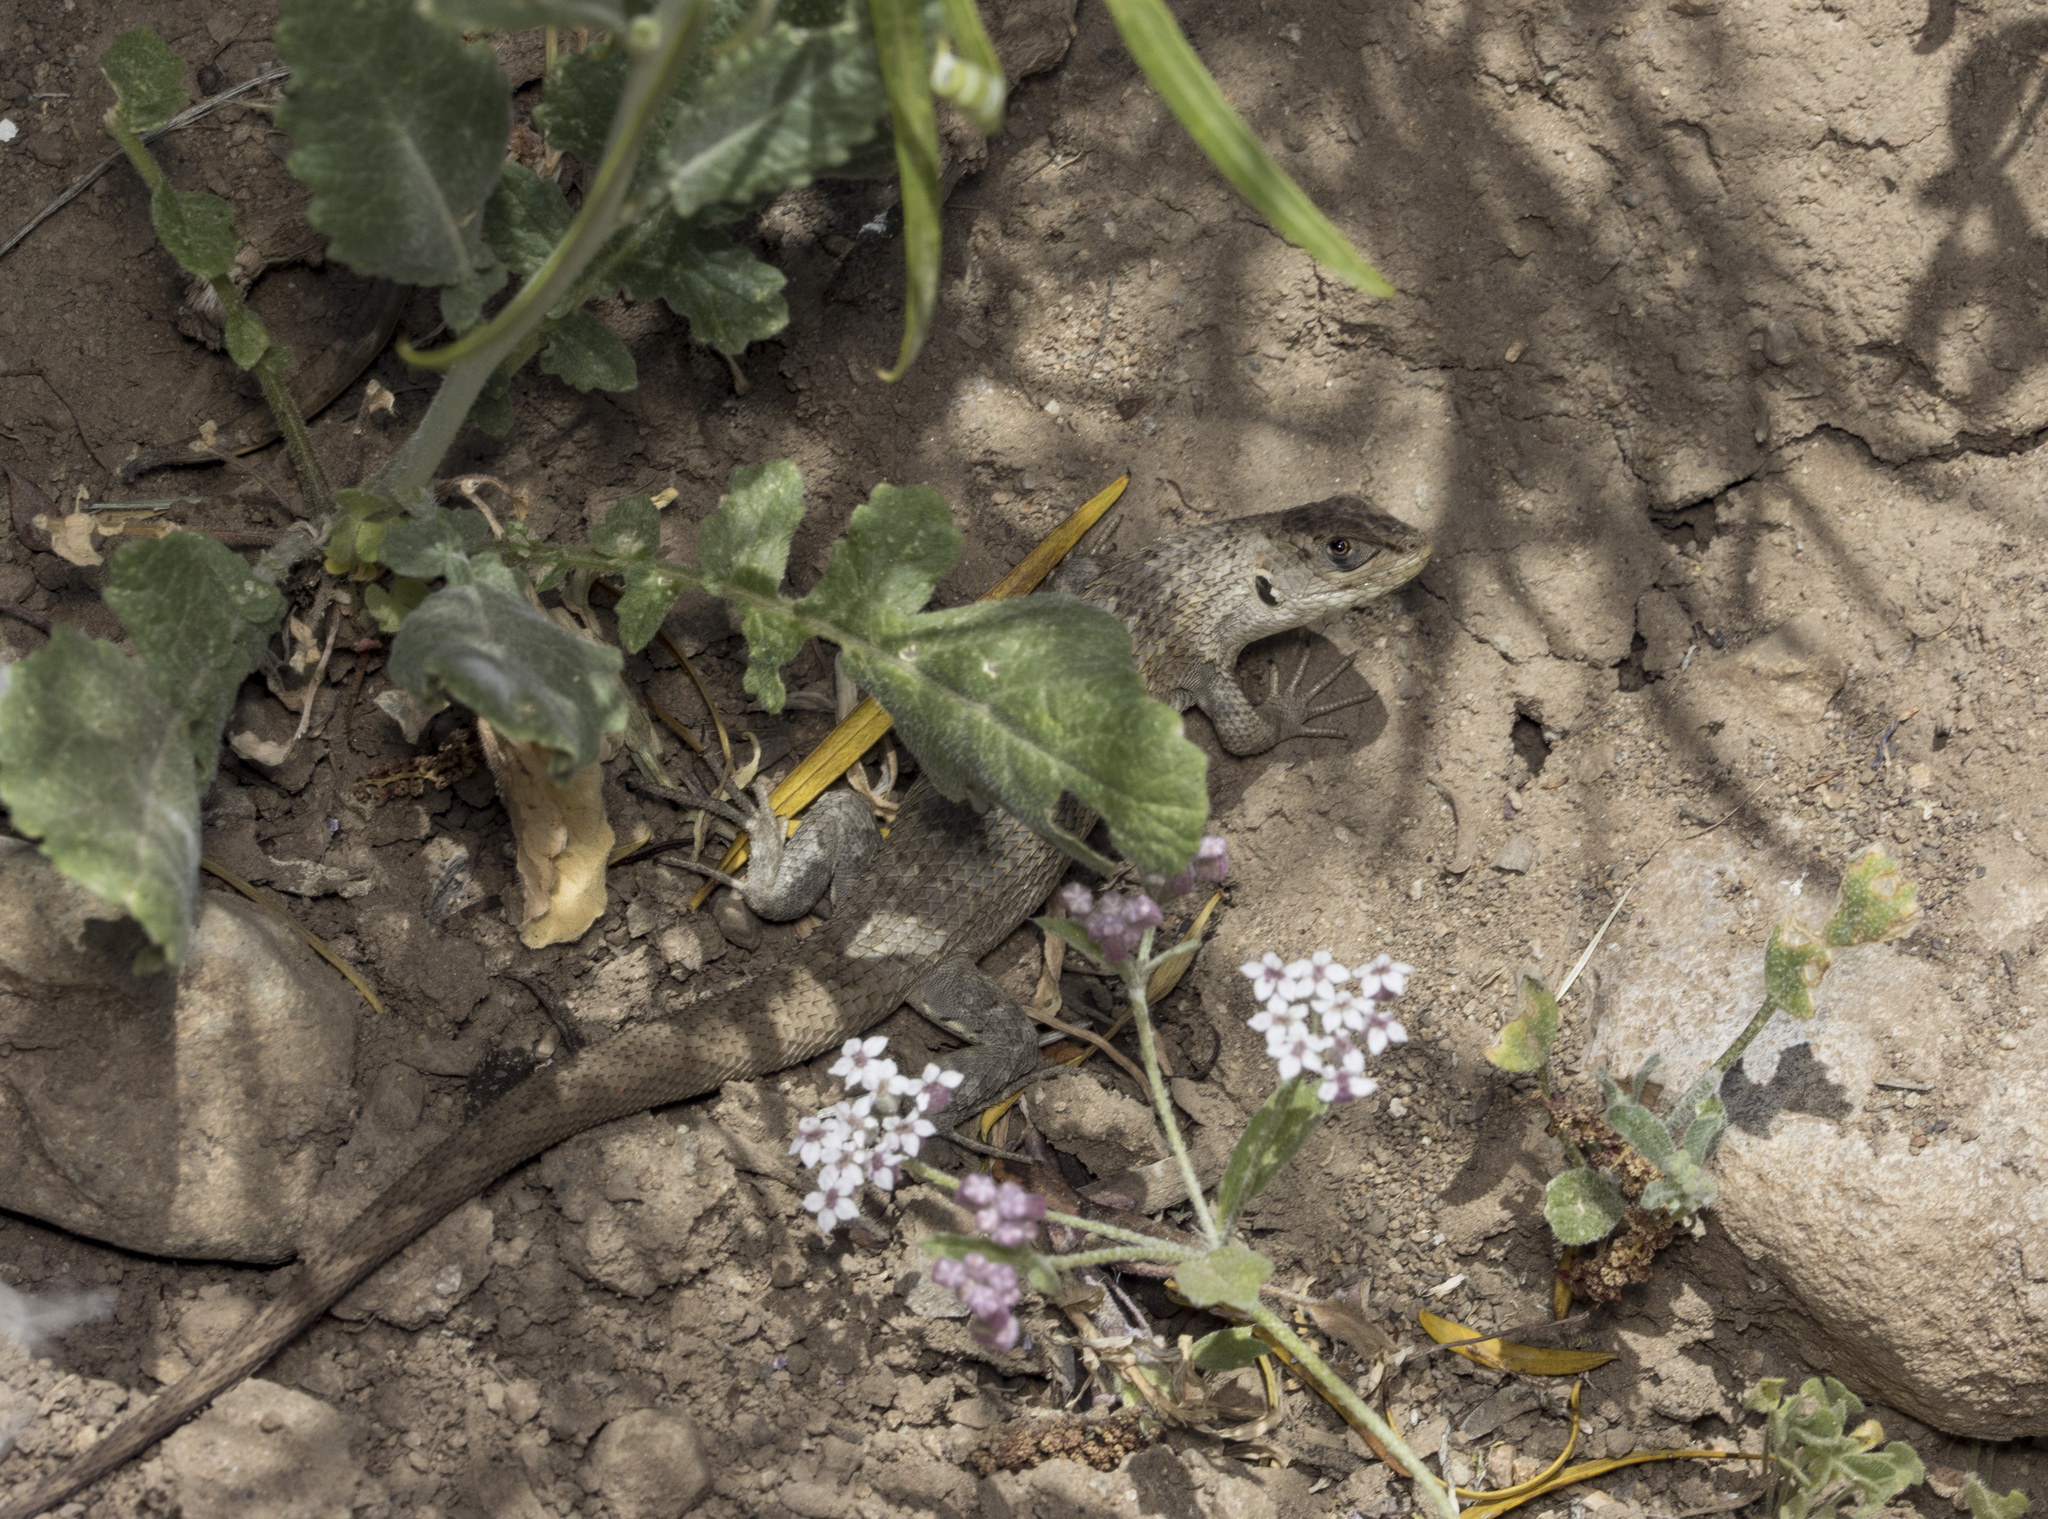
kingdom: Animalia
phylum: Chordata
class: Squamata
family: Liolaemidae
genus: Liolaemus
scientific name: Liolaemus nitidus
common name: Shining tree iguana
